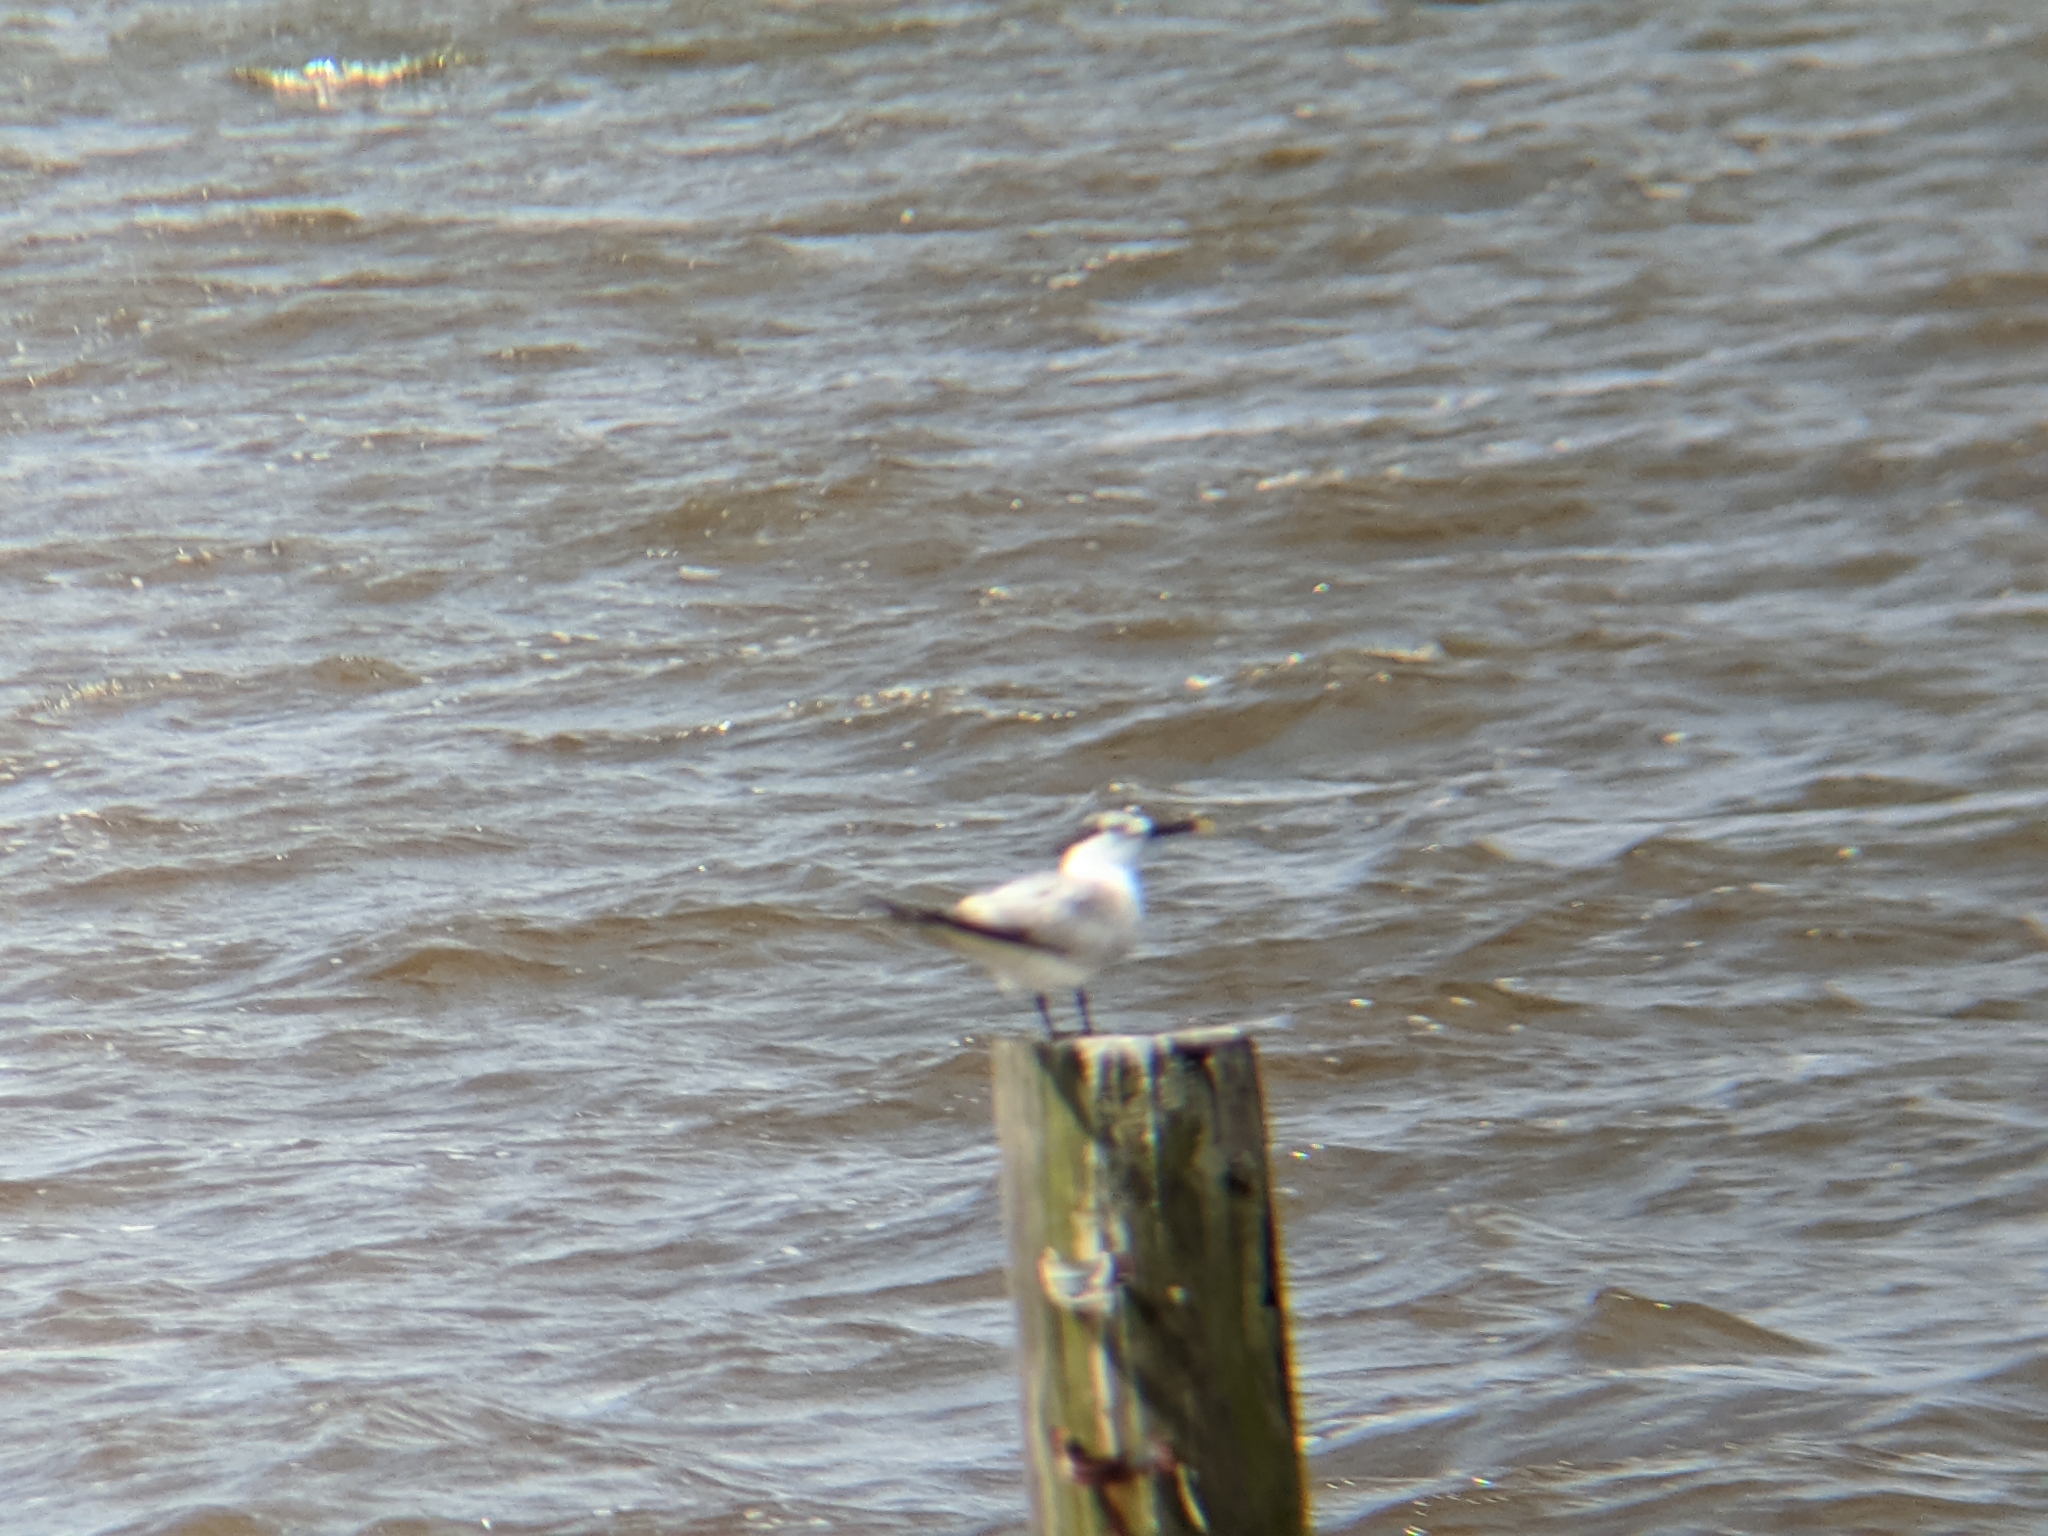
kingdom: Animalia
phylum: Chordata
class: Aves
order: Charadriiformes
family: Laridae
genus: Thalasseus
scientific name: Thalasseus sandvicensis
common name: Sandwich tern
